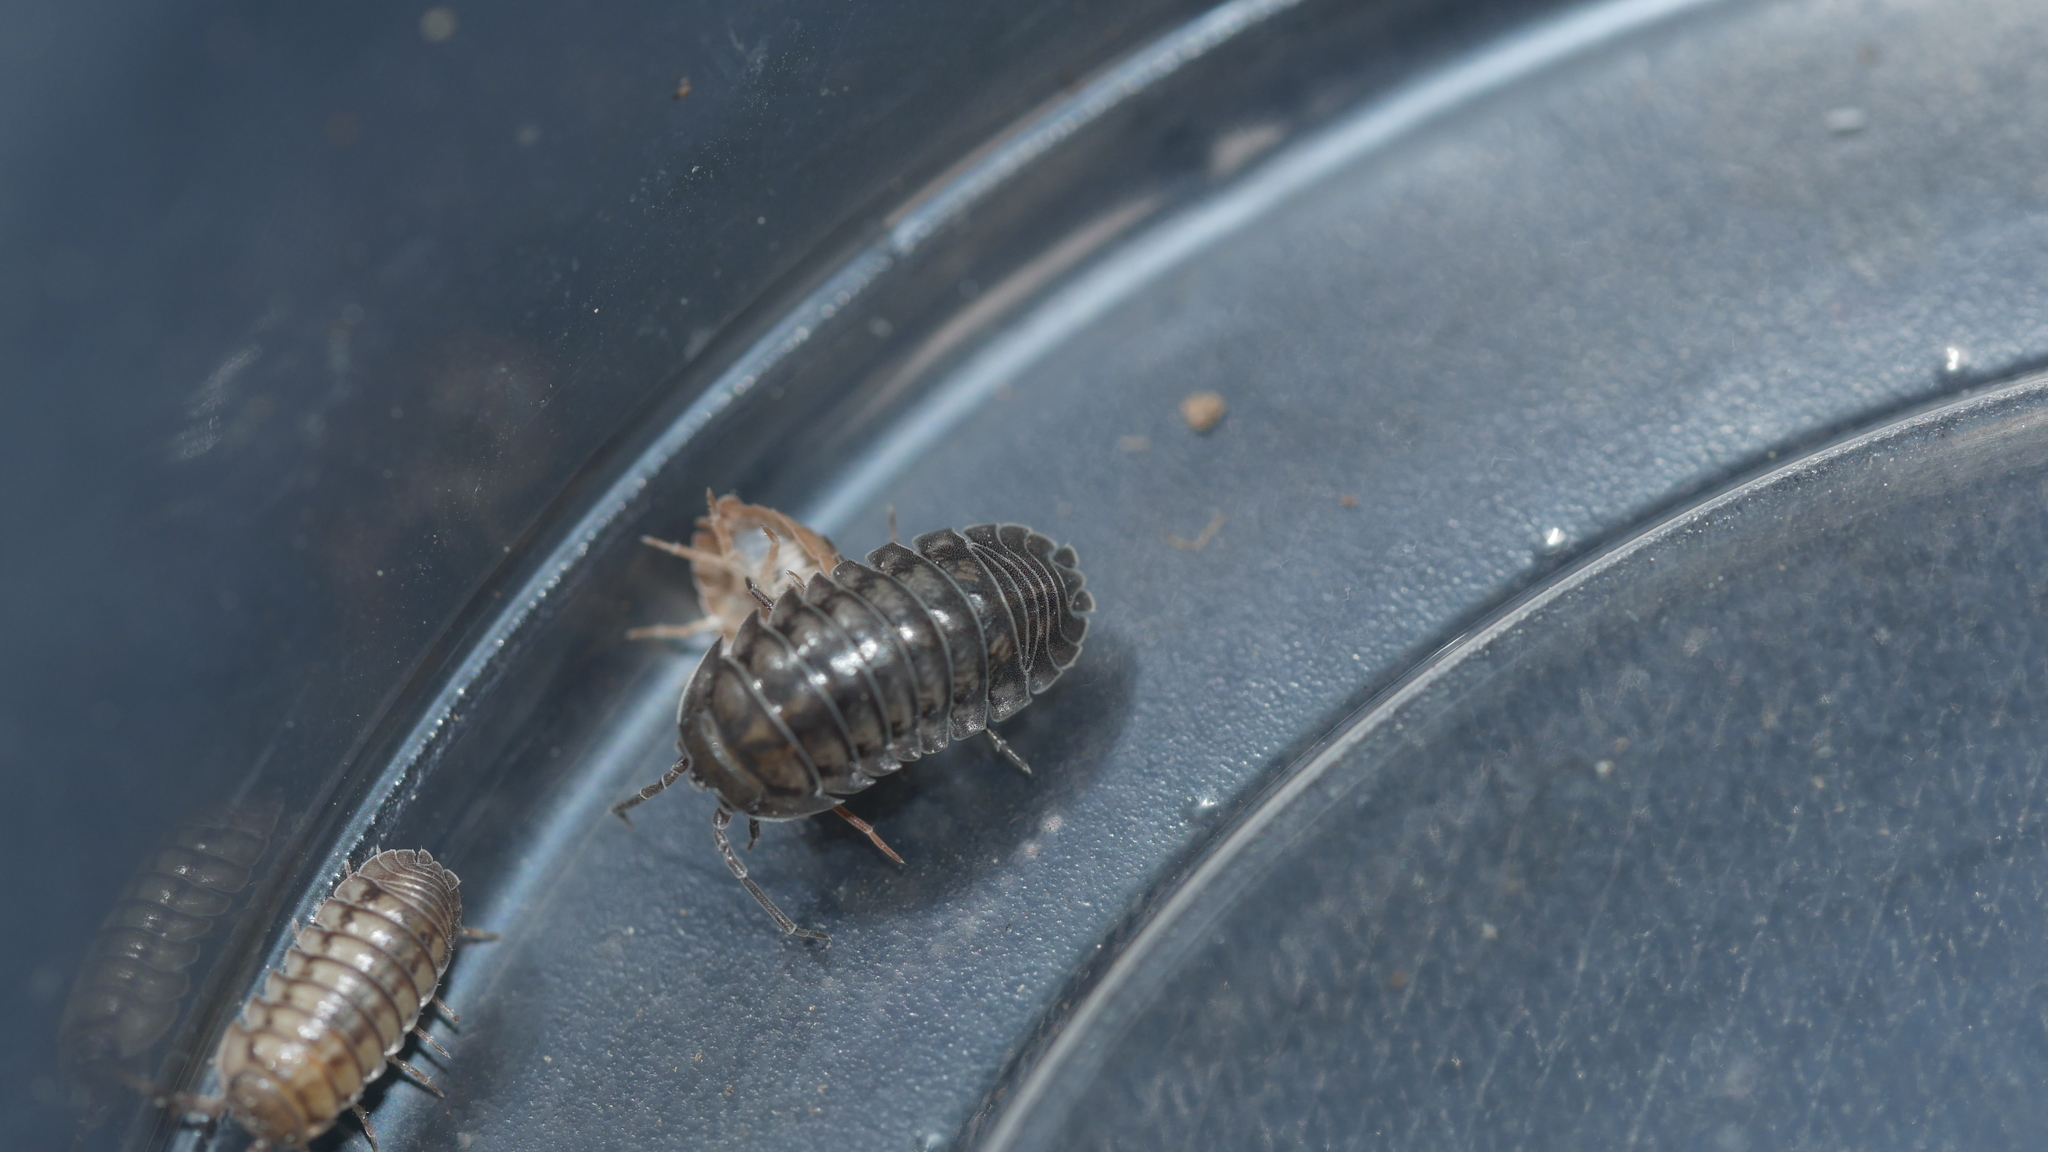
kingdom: Animalia
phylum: Arthropoda
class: Malacostraca
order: Isopoda
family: Armadillidiidae
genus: Armadillidium
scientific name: Armadillidium nasatum
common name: Isopod
